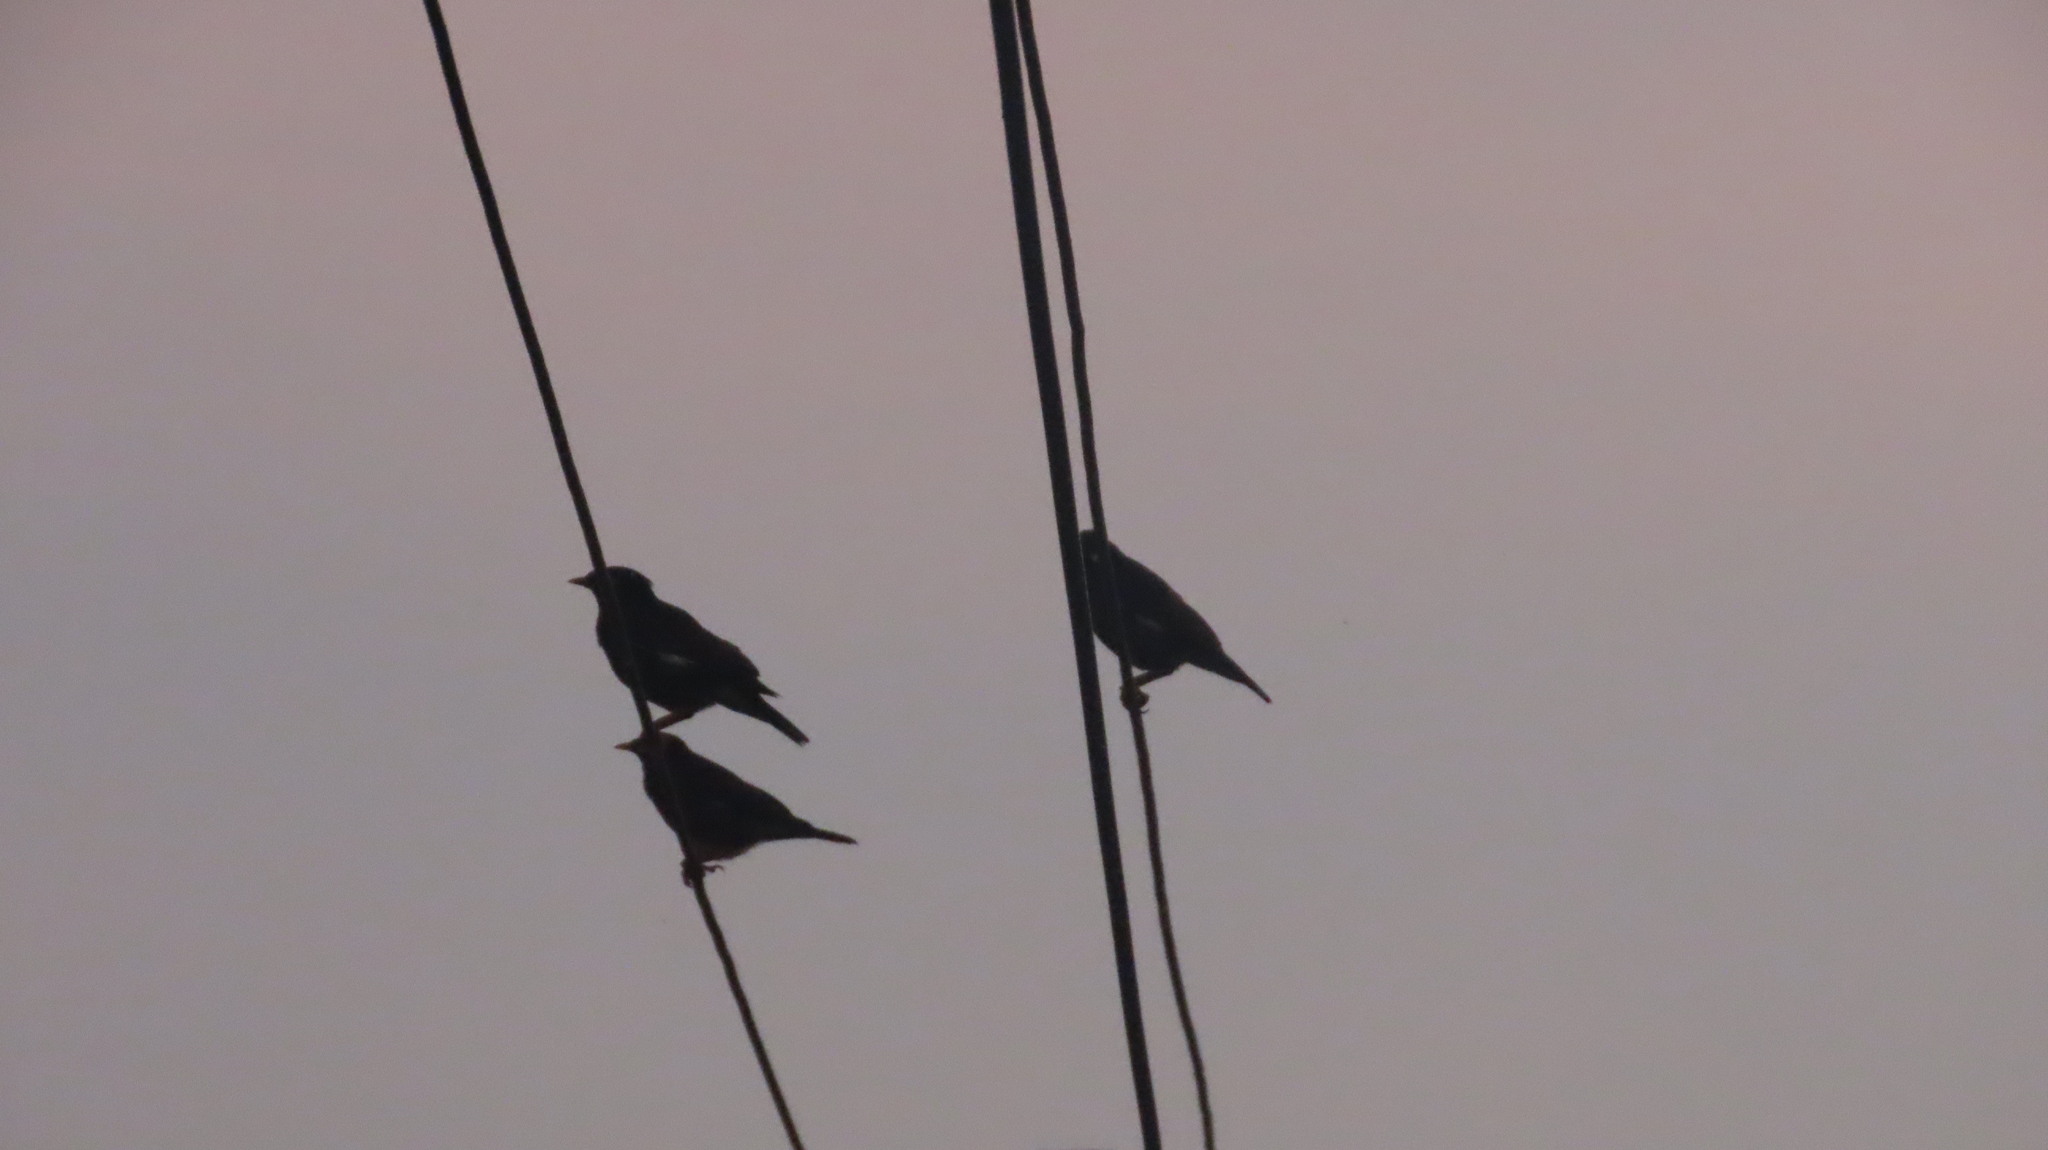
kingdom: Animalia
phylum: Chordata
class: Aves
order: Passeriformes
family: Sturnidae
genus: Acridotheres
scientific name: Acridotheres tristis
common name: Common myna
